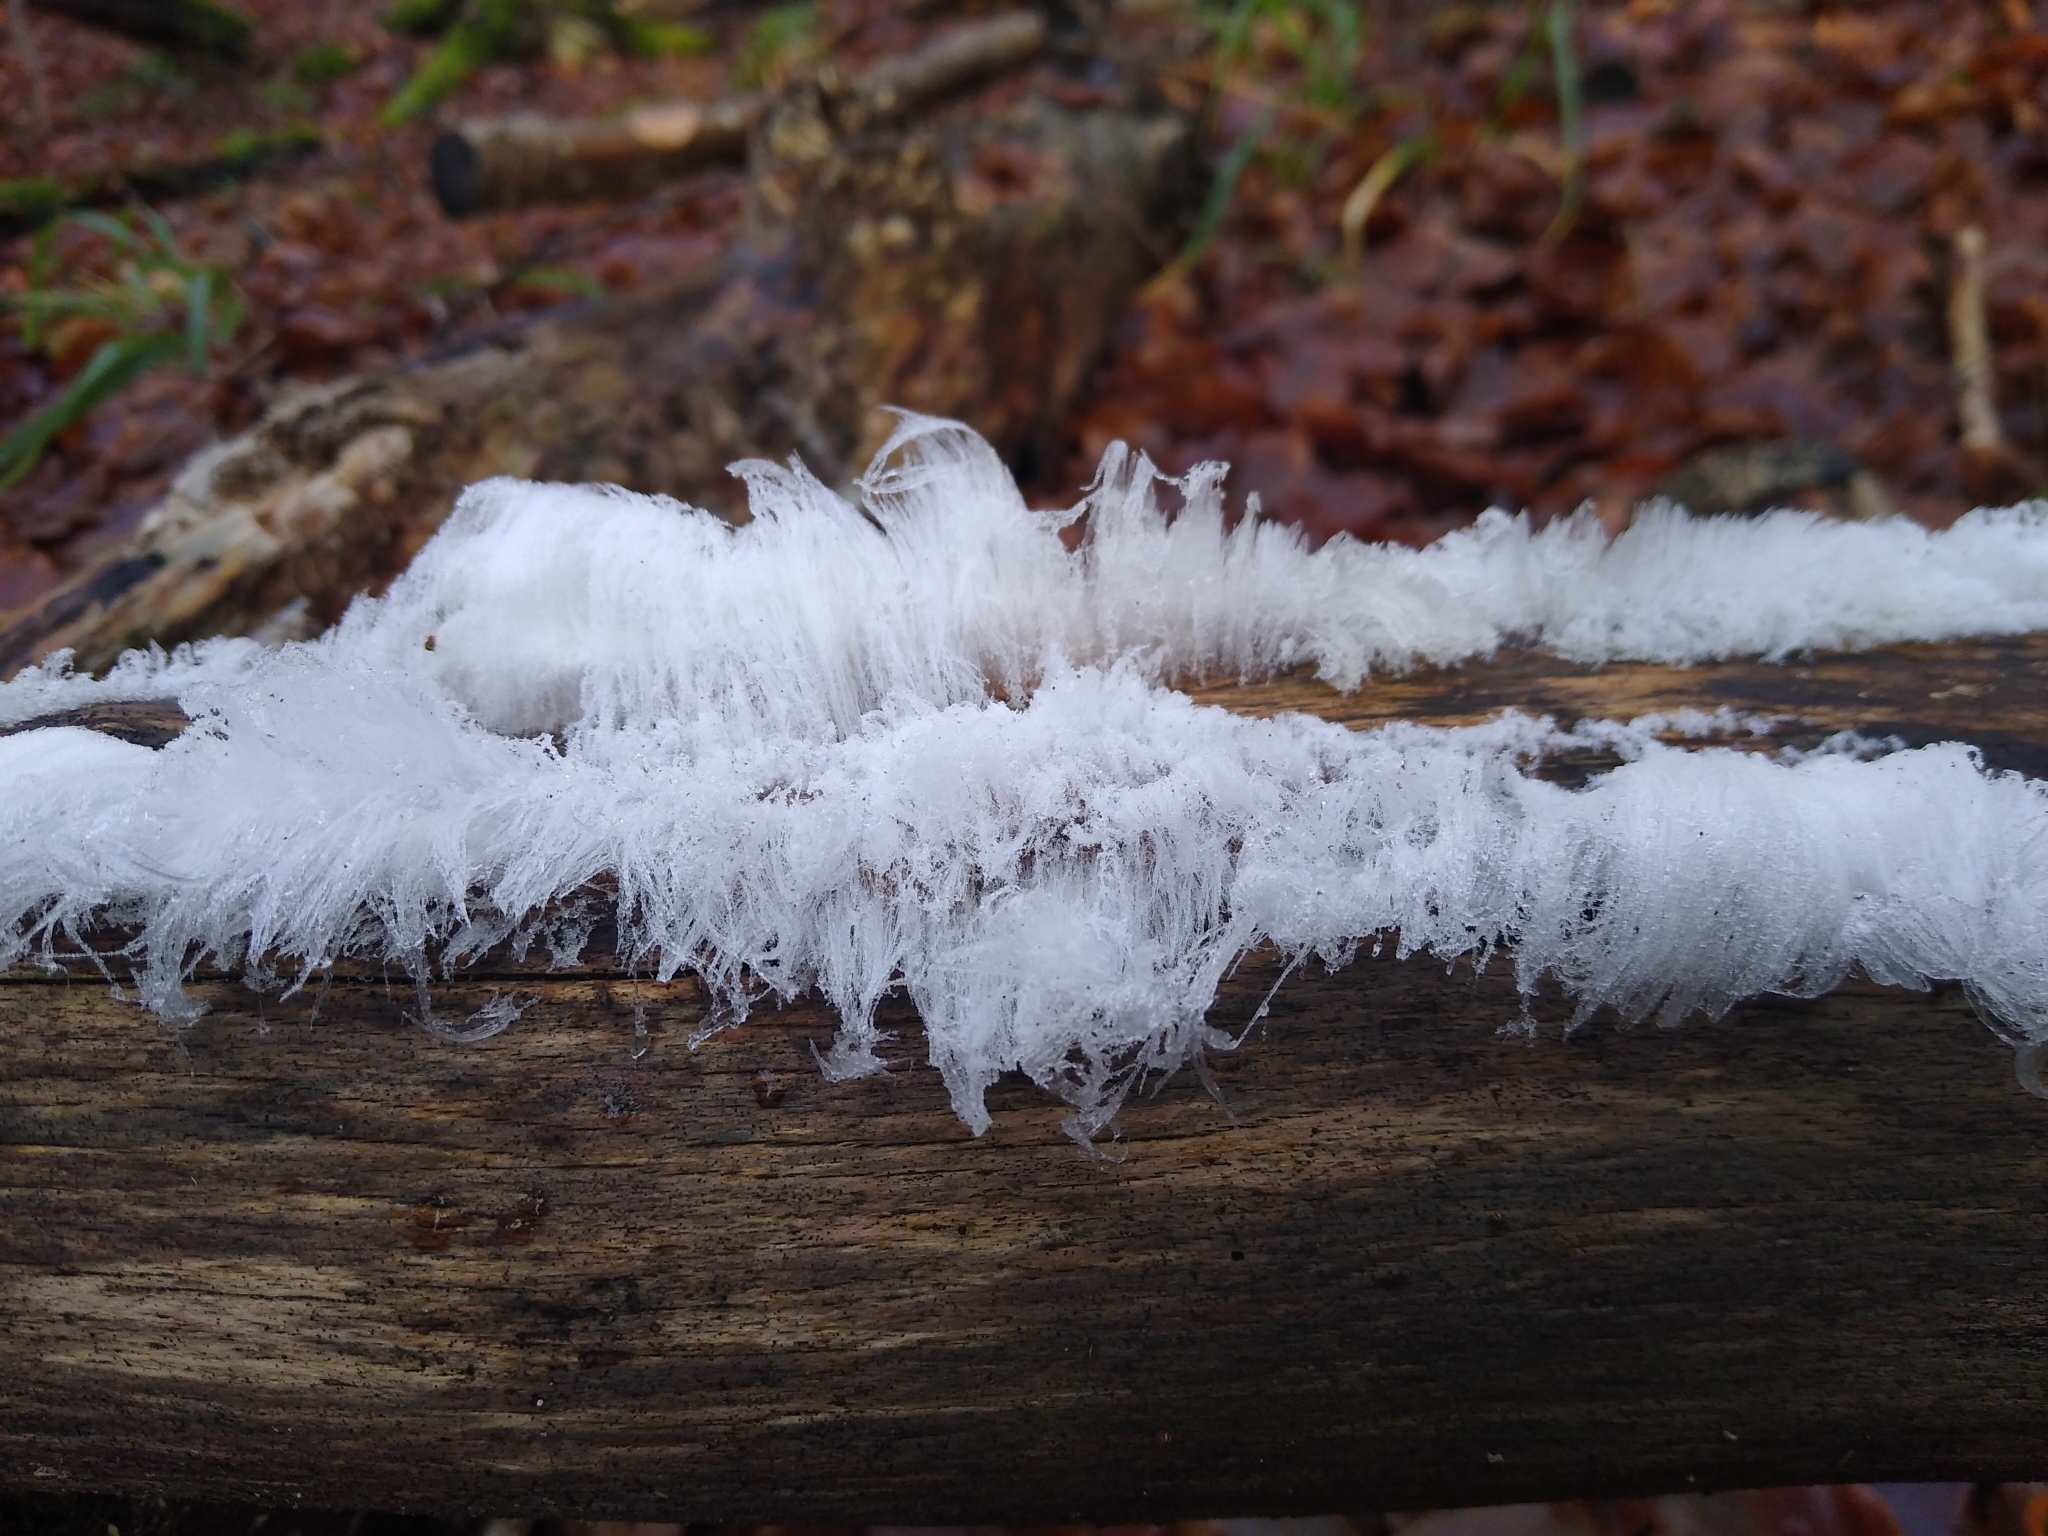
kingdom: Fungi
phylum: Basidiomycota
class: Agaricomycetes
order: Auriculariales
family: Auriculariaceae
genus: Exidiopsis
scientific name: Exidiopsis effusa
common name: Hair ice crust
